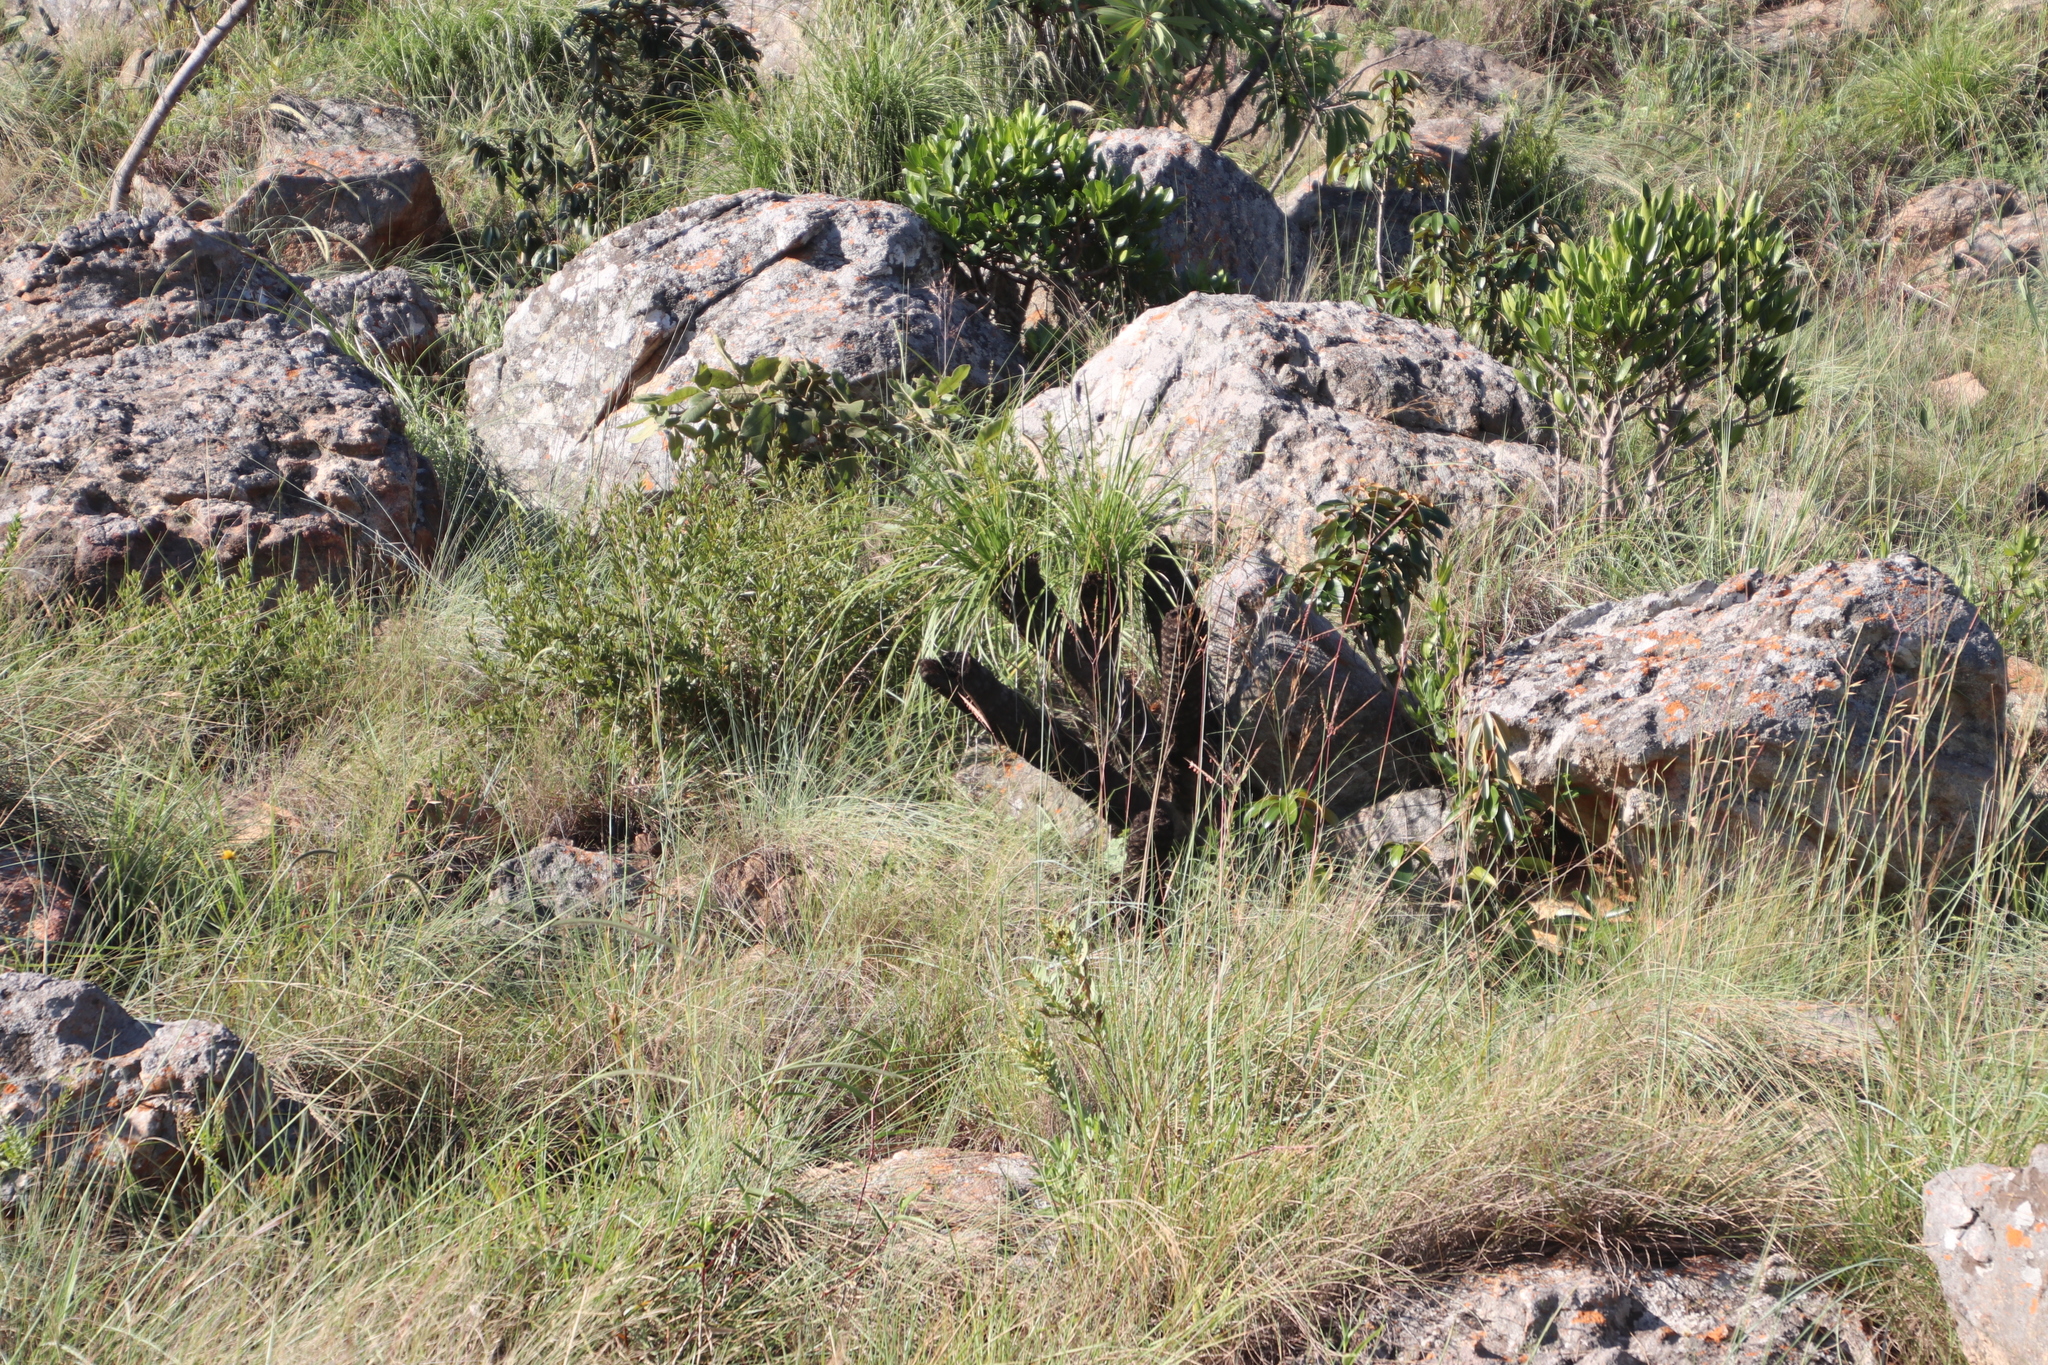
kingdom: Plantae
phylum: Tracheophyta
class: Liliopsida
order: Pandanales
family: Velloziaceae
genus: Xerophyta
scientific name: Xerophyta retinervis
